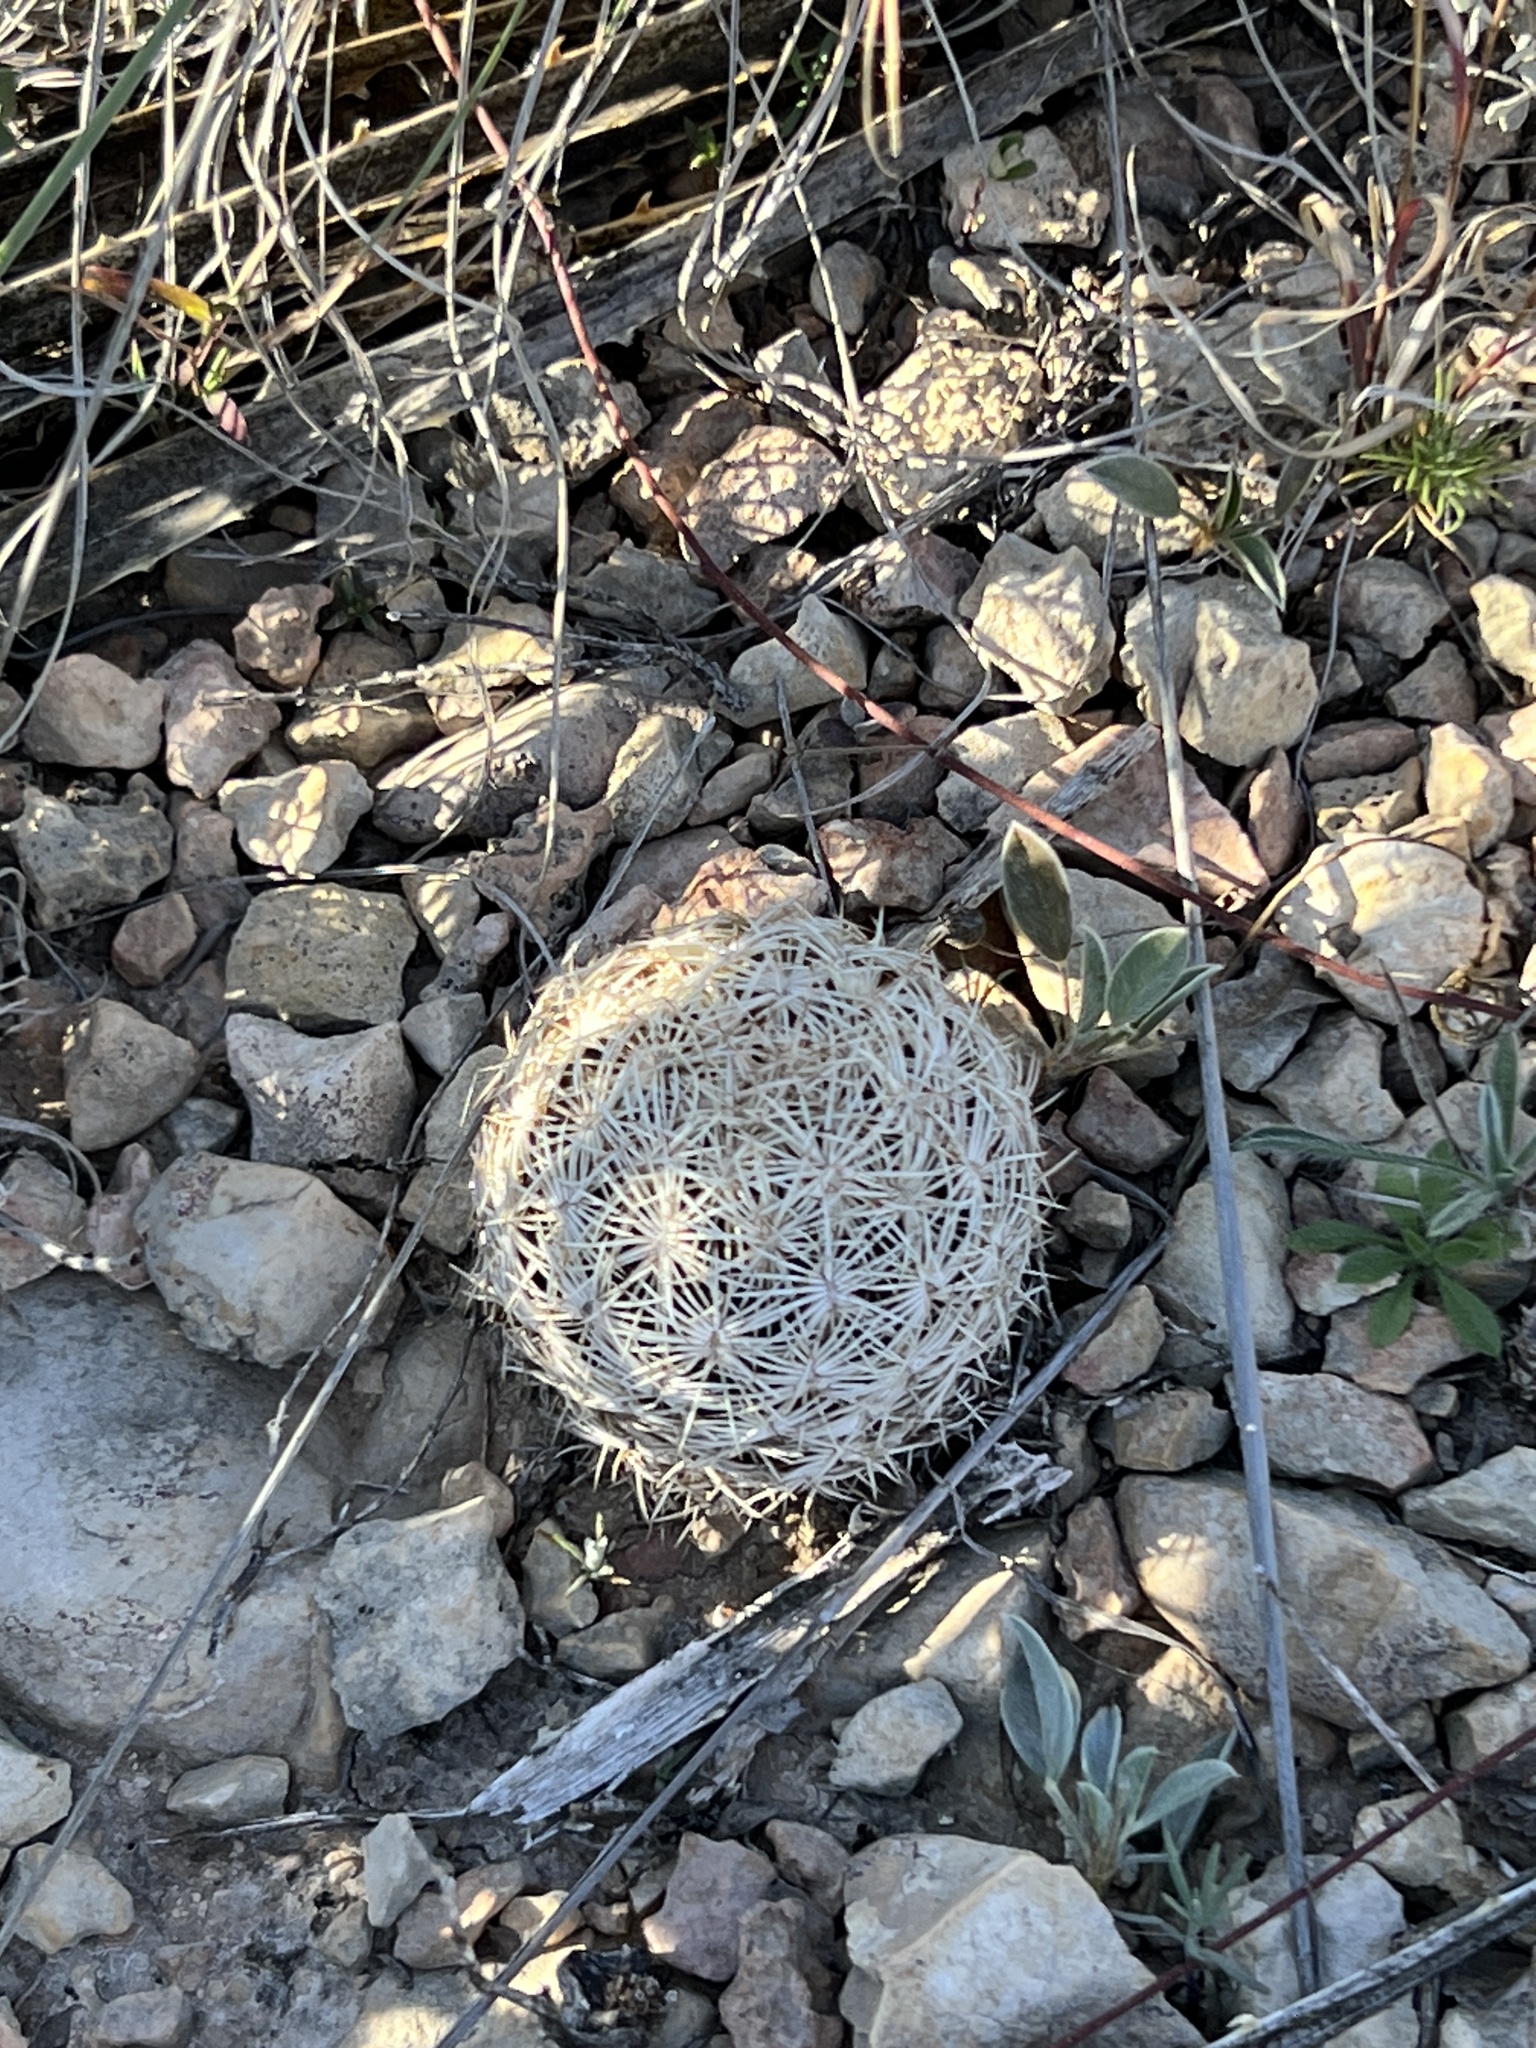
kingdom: Plantae
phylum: Tracheophyta
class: Magnoliopsida
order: Caryophyllales
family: Cactaceae
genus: Coryphantha
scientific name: Coryphantha echinus
